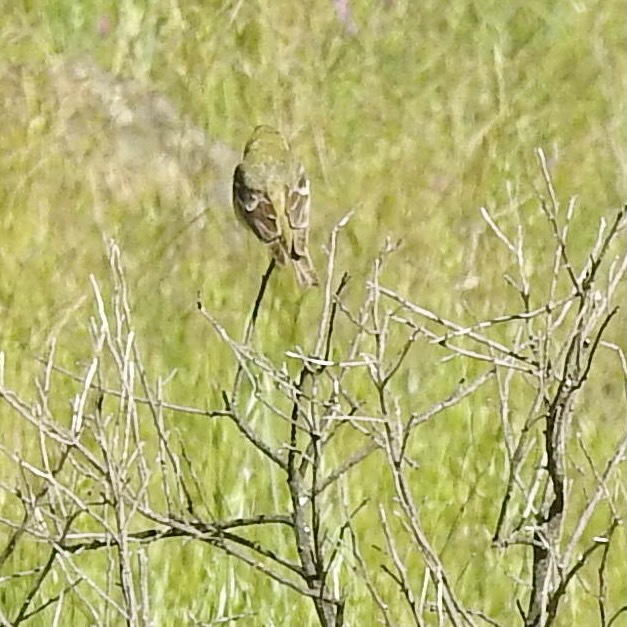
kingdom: Animalia
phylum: Chordata
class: Aves
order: Passeriformes
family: Fringillidae
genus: Spinus
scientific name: Spinus psaltria
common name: Lesser goldfinch
